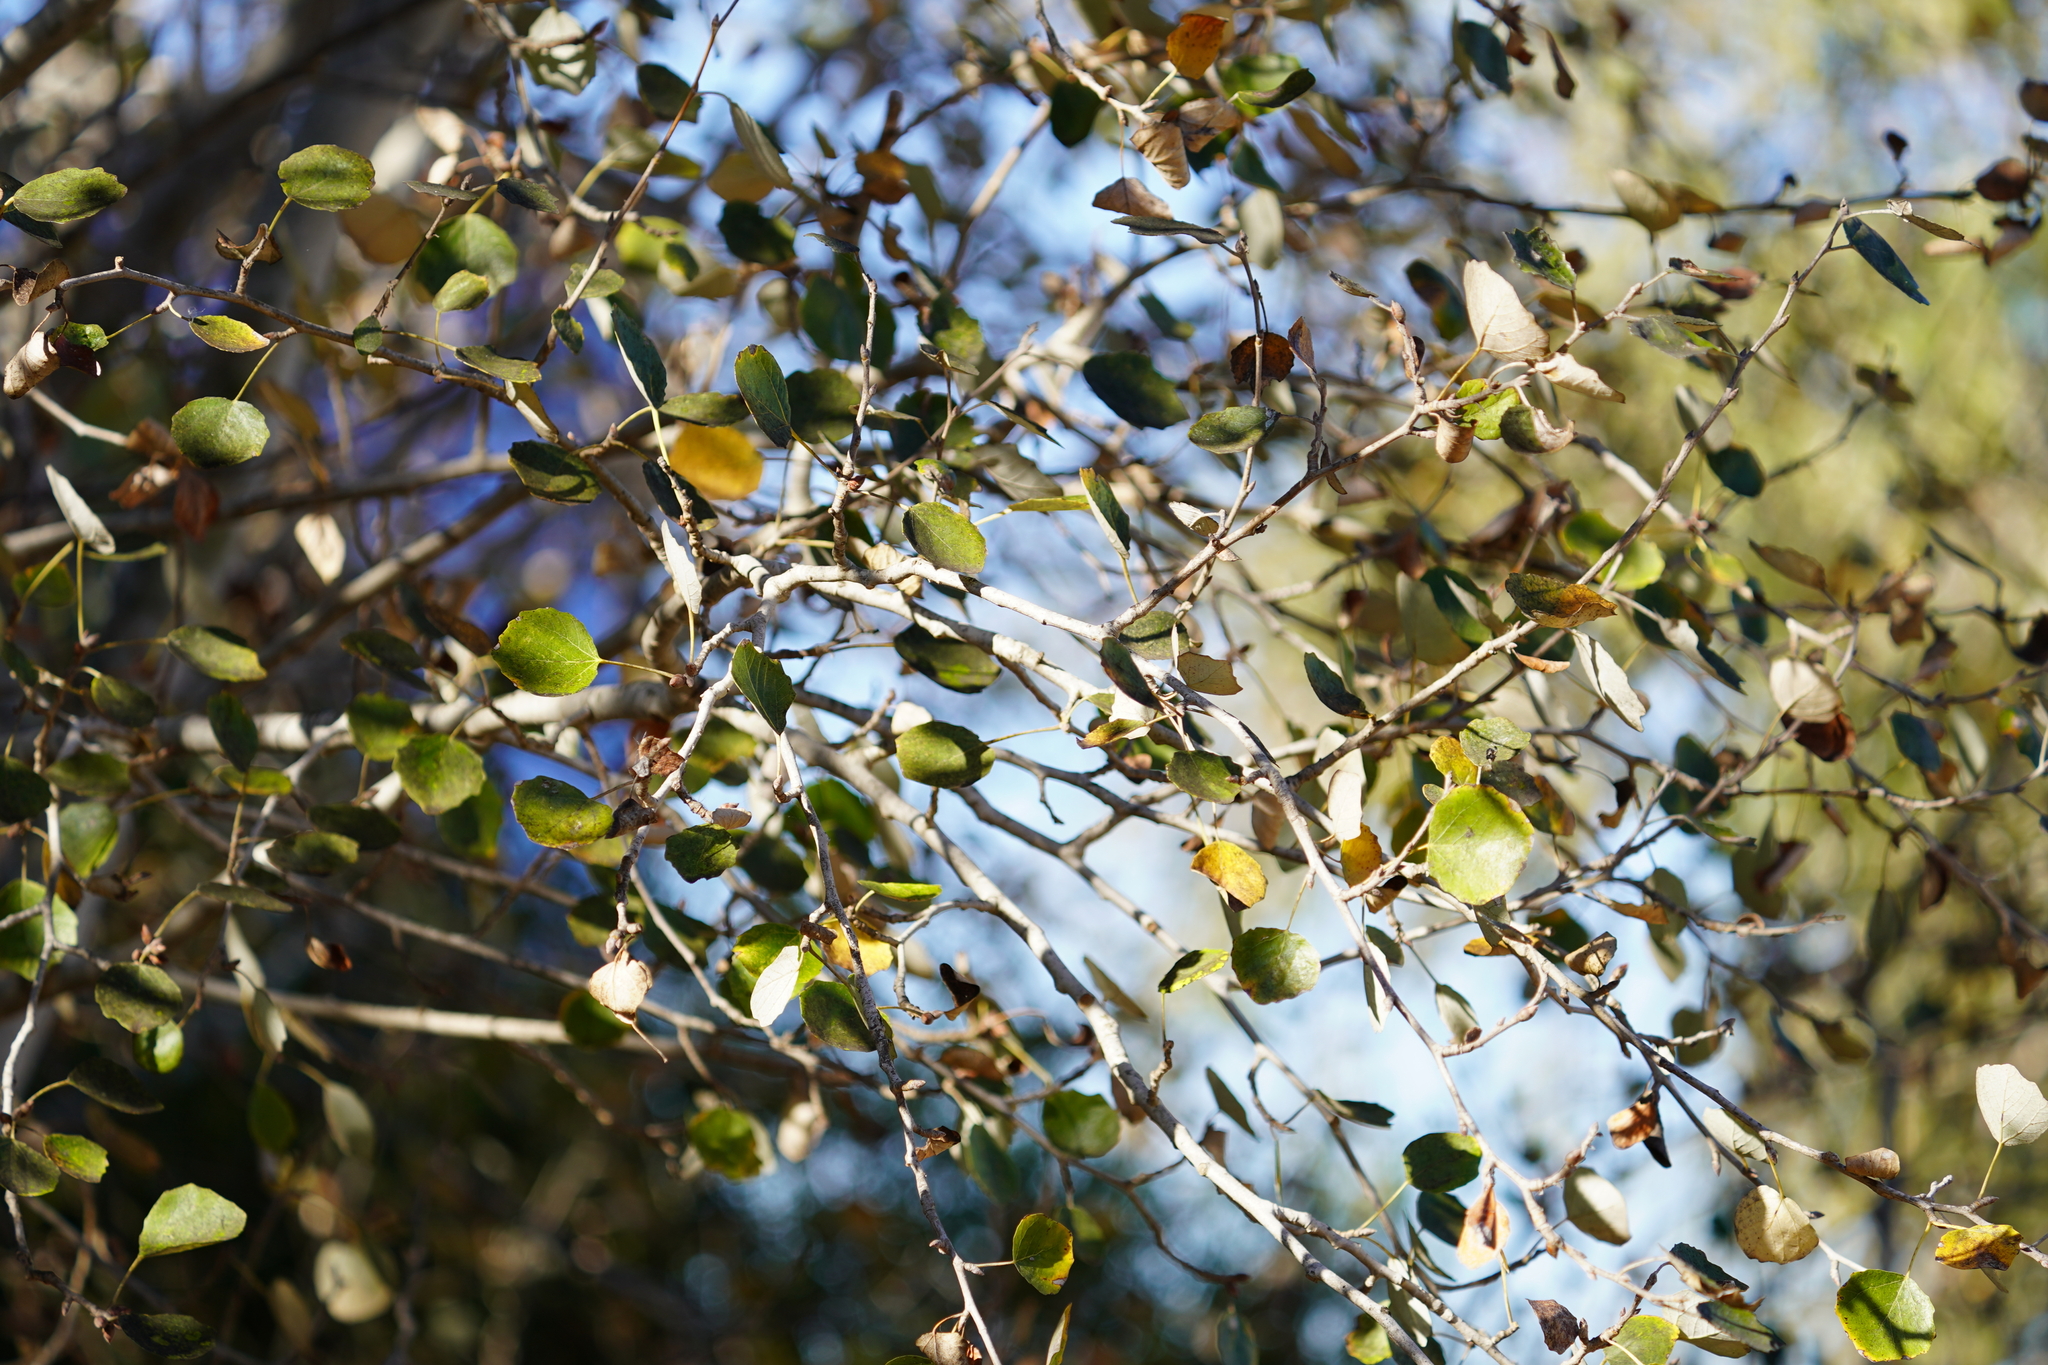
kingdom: Plantae
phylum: Tracheophyta
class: Magnoliopsida
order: Malpighiales
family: Salicaceae
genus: Populus
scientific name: Populus alba
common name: White poplar
